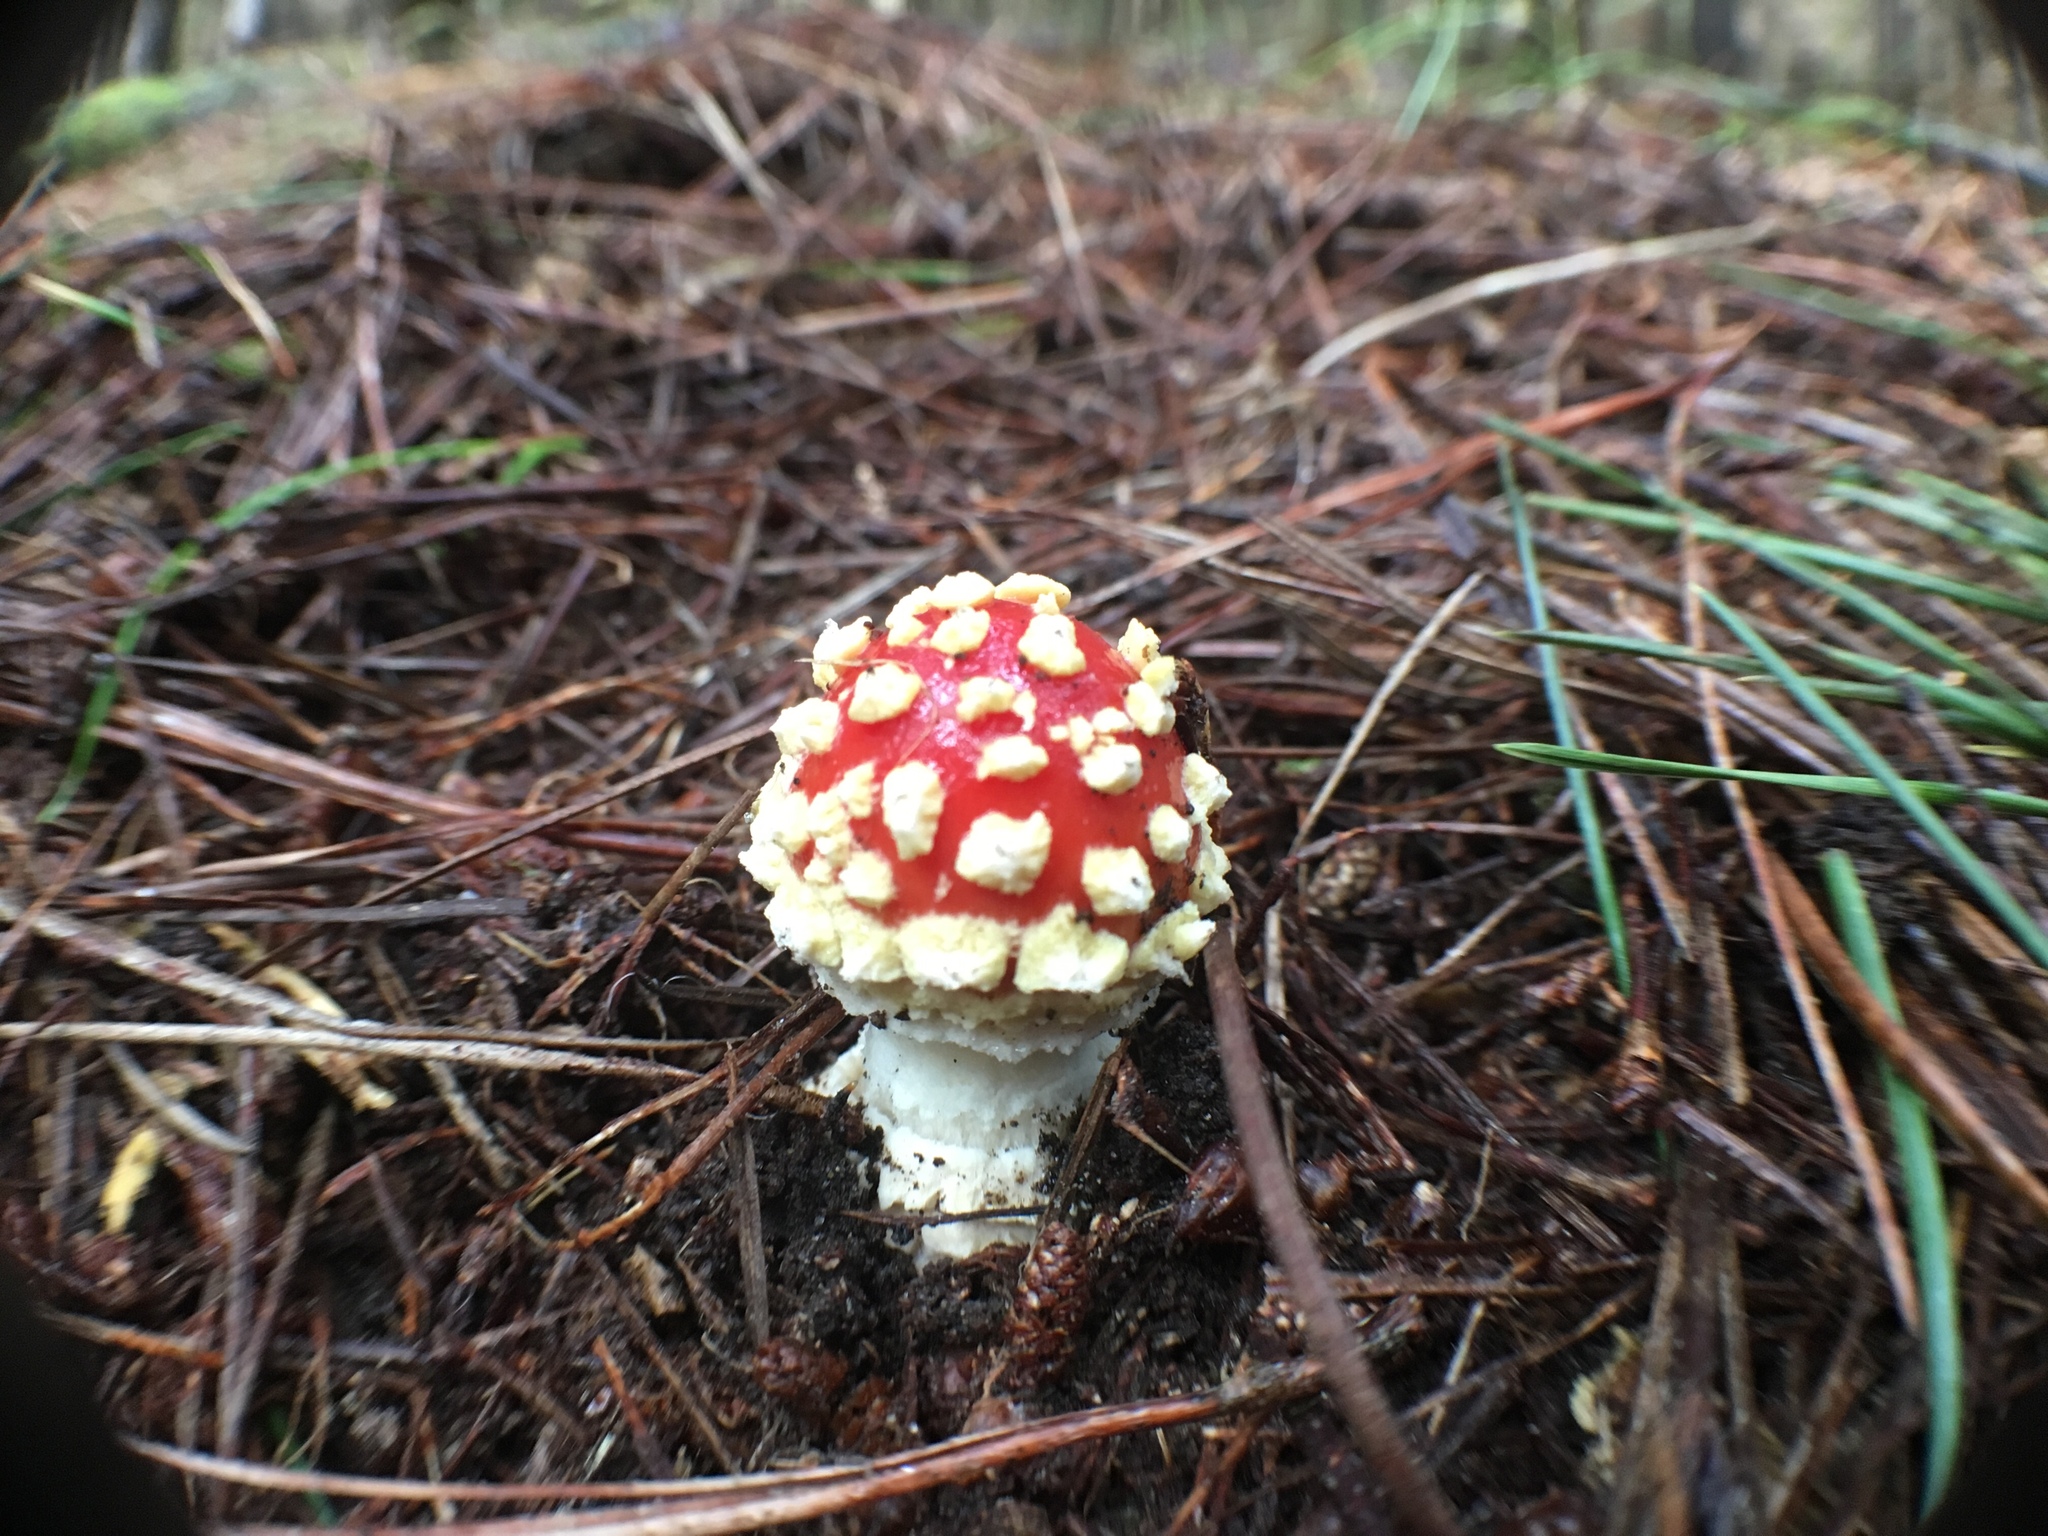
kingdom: Fungi
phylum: Basidiomycota
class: Agaricomycetes
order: Agaricales
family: Amanitaceae
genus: Amanita
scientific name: Amanita muscaria
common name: Fly agaric
